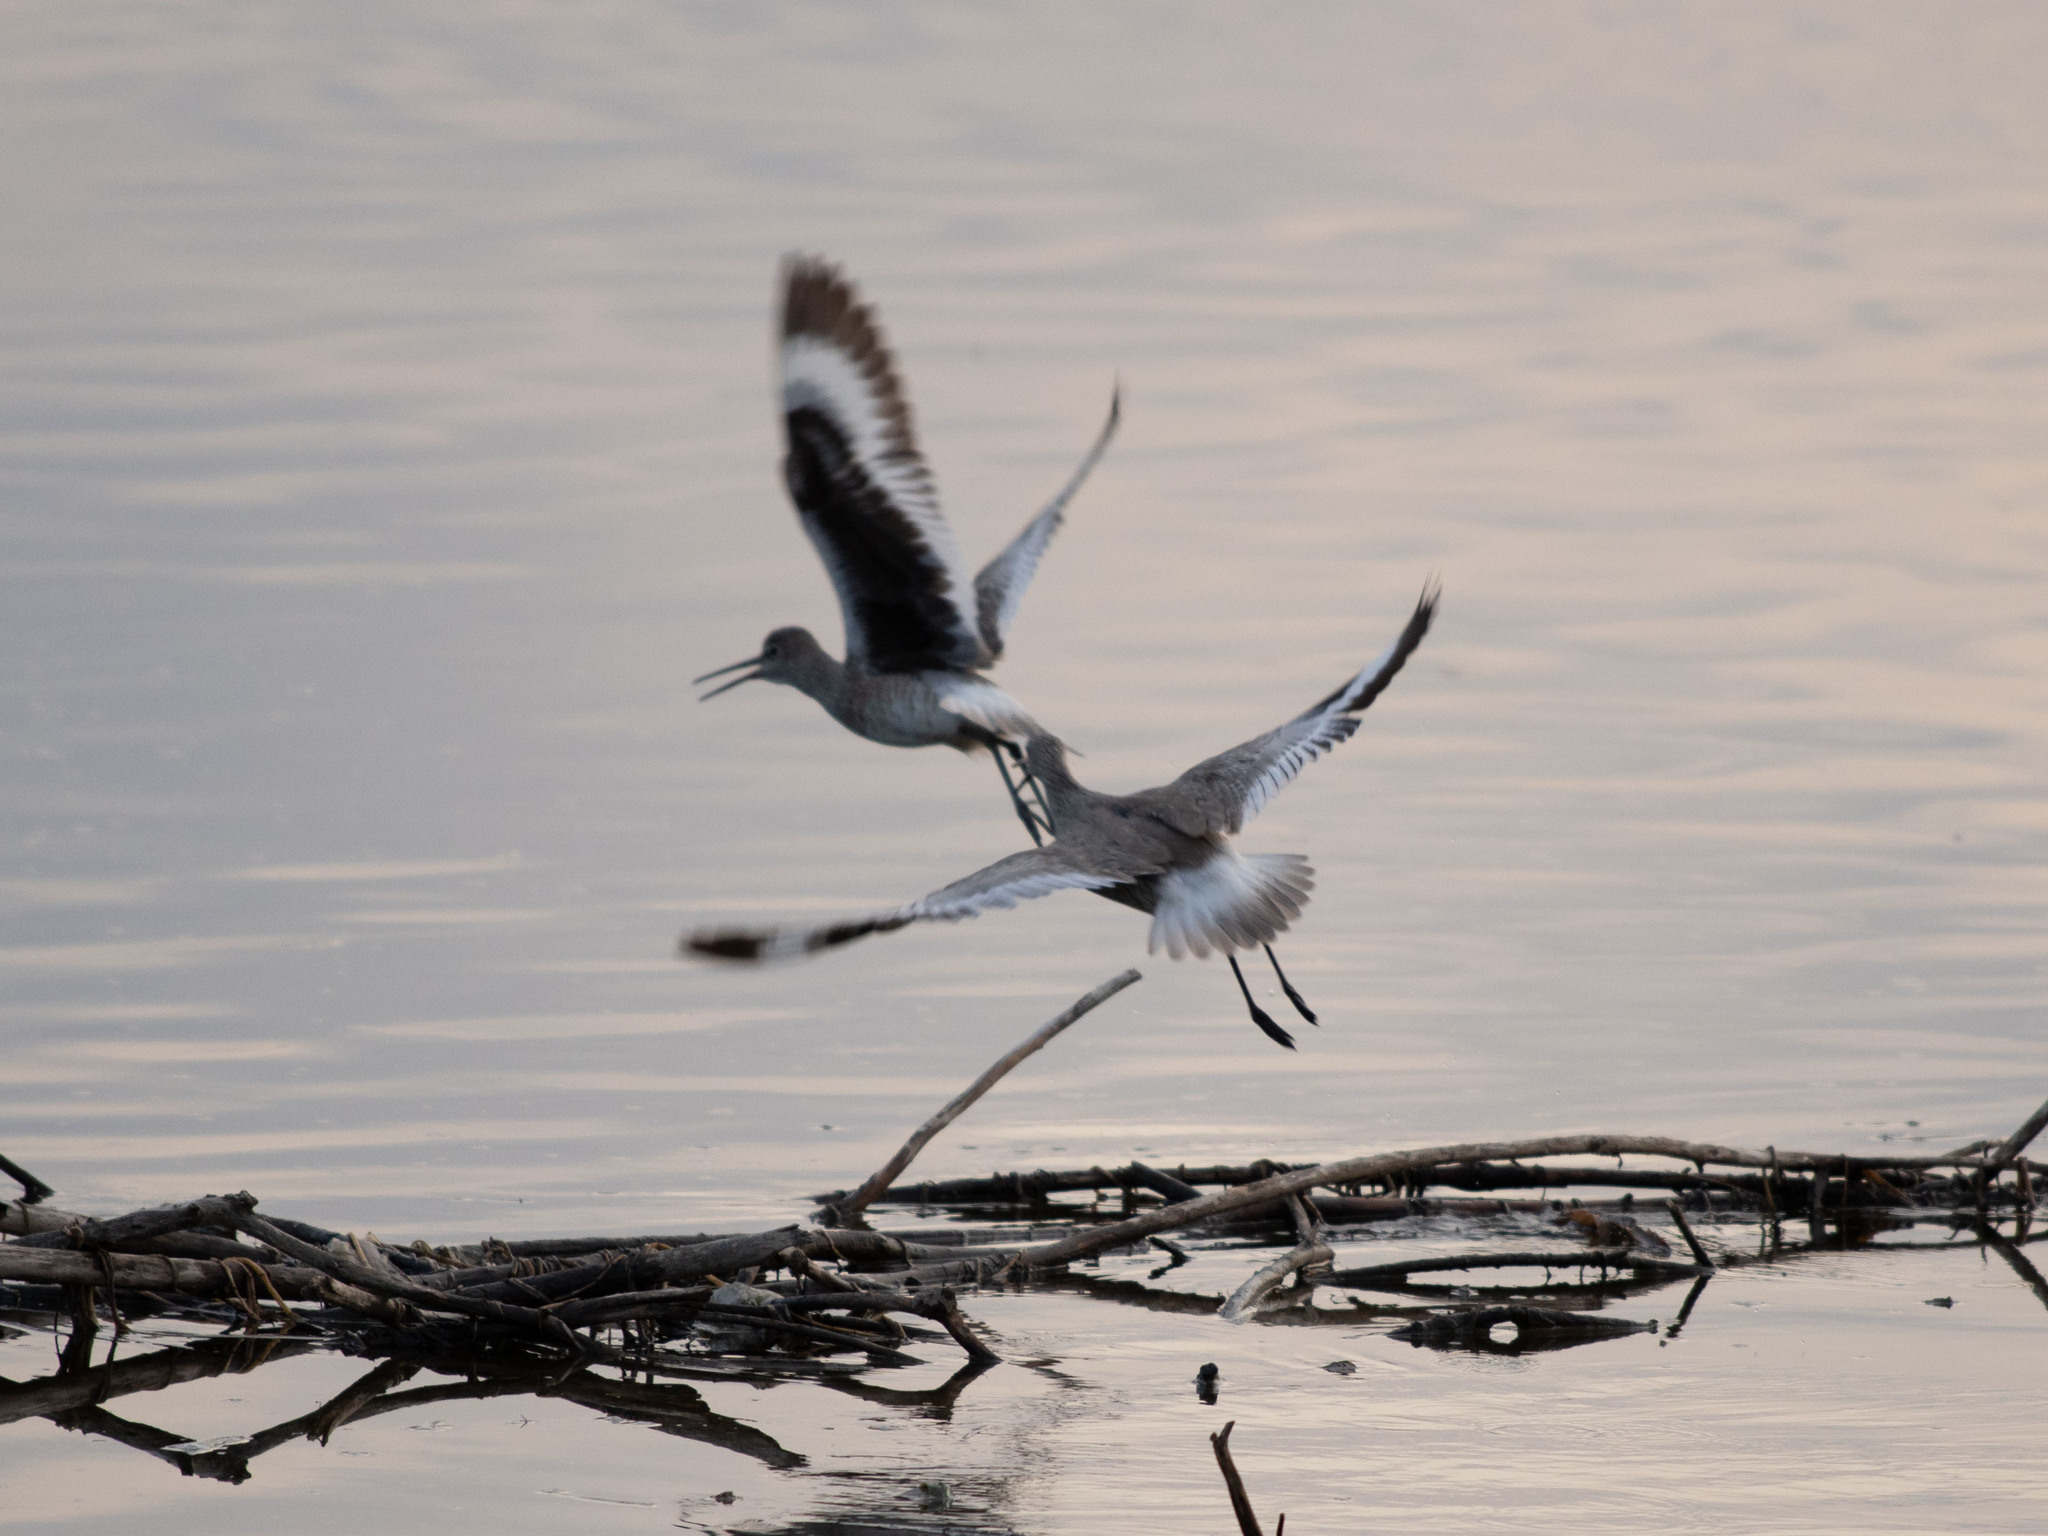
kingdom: Animalia
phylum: Chordata
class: Aves
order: Charadriiformes
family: Scolopacidae
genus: Tringa
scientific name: Tringa semipalmata
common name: Willet
